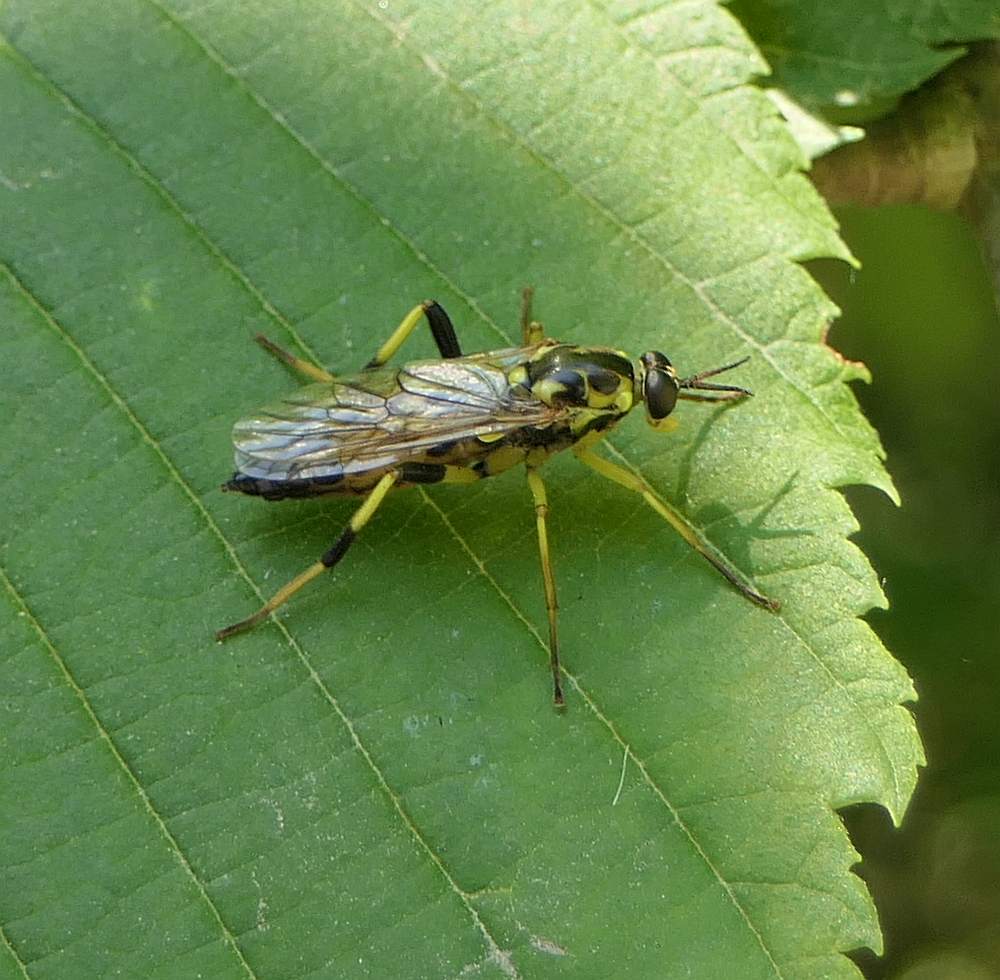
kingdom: Animalia
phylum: Arthropoda
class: Insecta
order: Diptera
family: Xylomyidae
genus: Xylomya
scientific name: Xylomya terminalis
